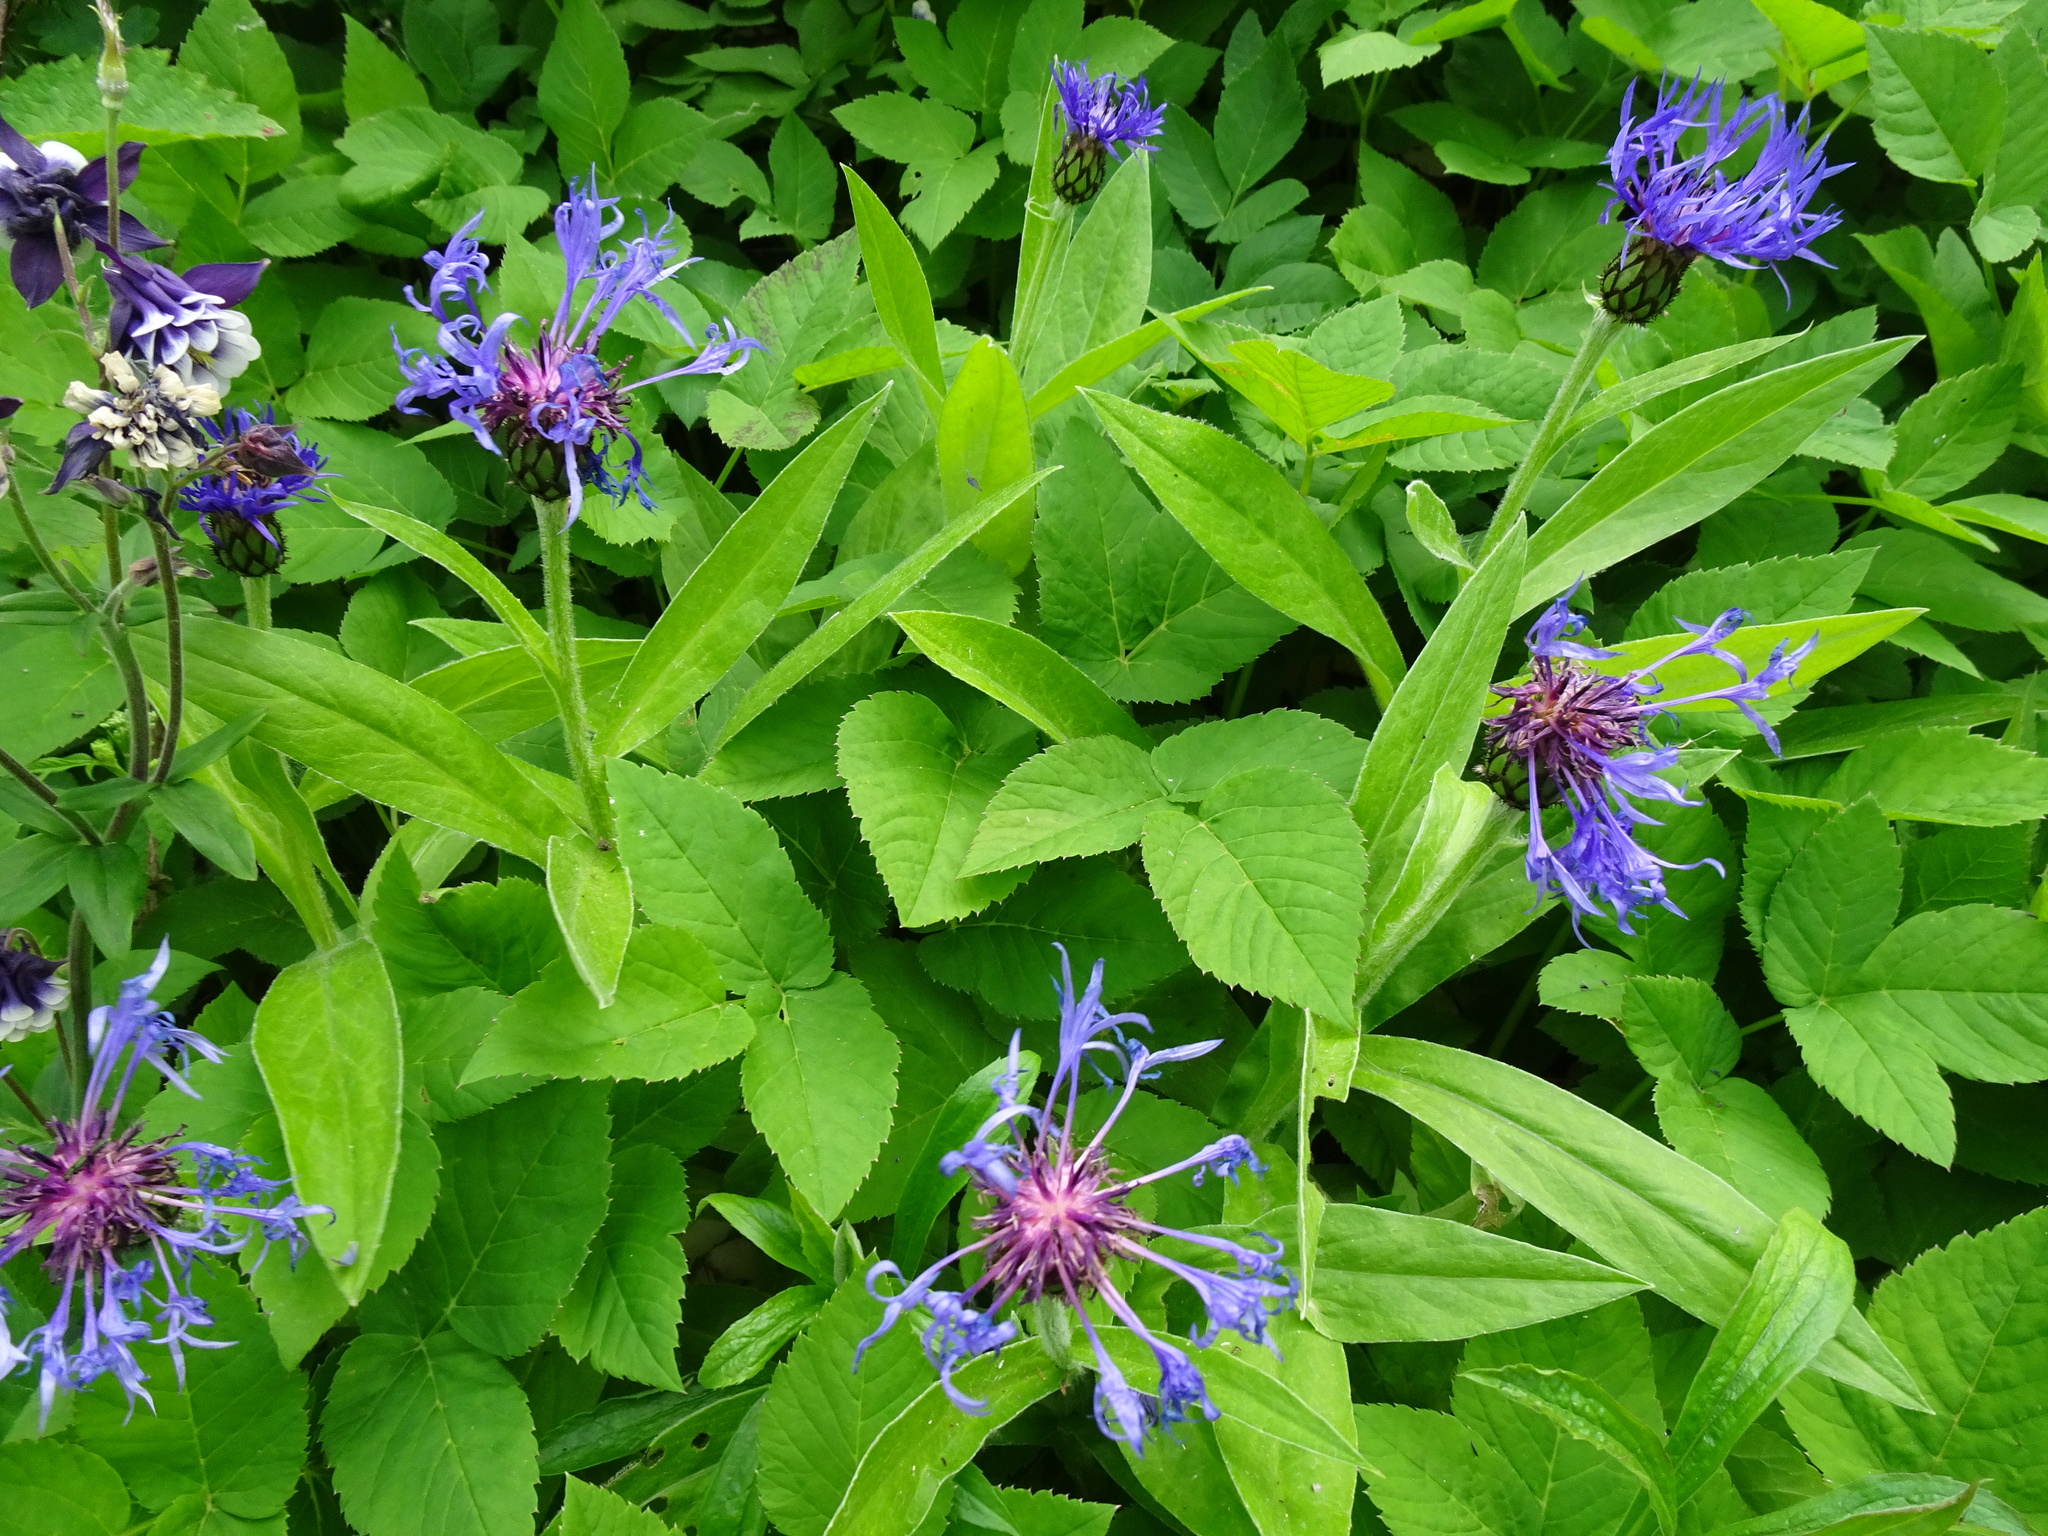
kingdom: Plantae
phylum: Tracheophyta
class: Magnoliopsida
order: Asterales
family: Asteraceae
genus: Centaurea
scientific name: Centaurea montana
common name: Perennial cornflower
